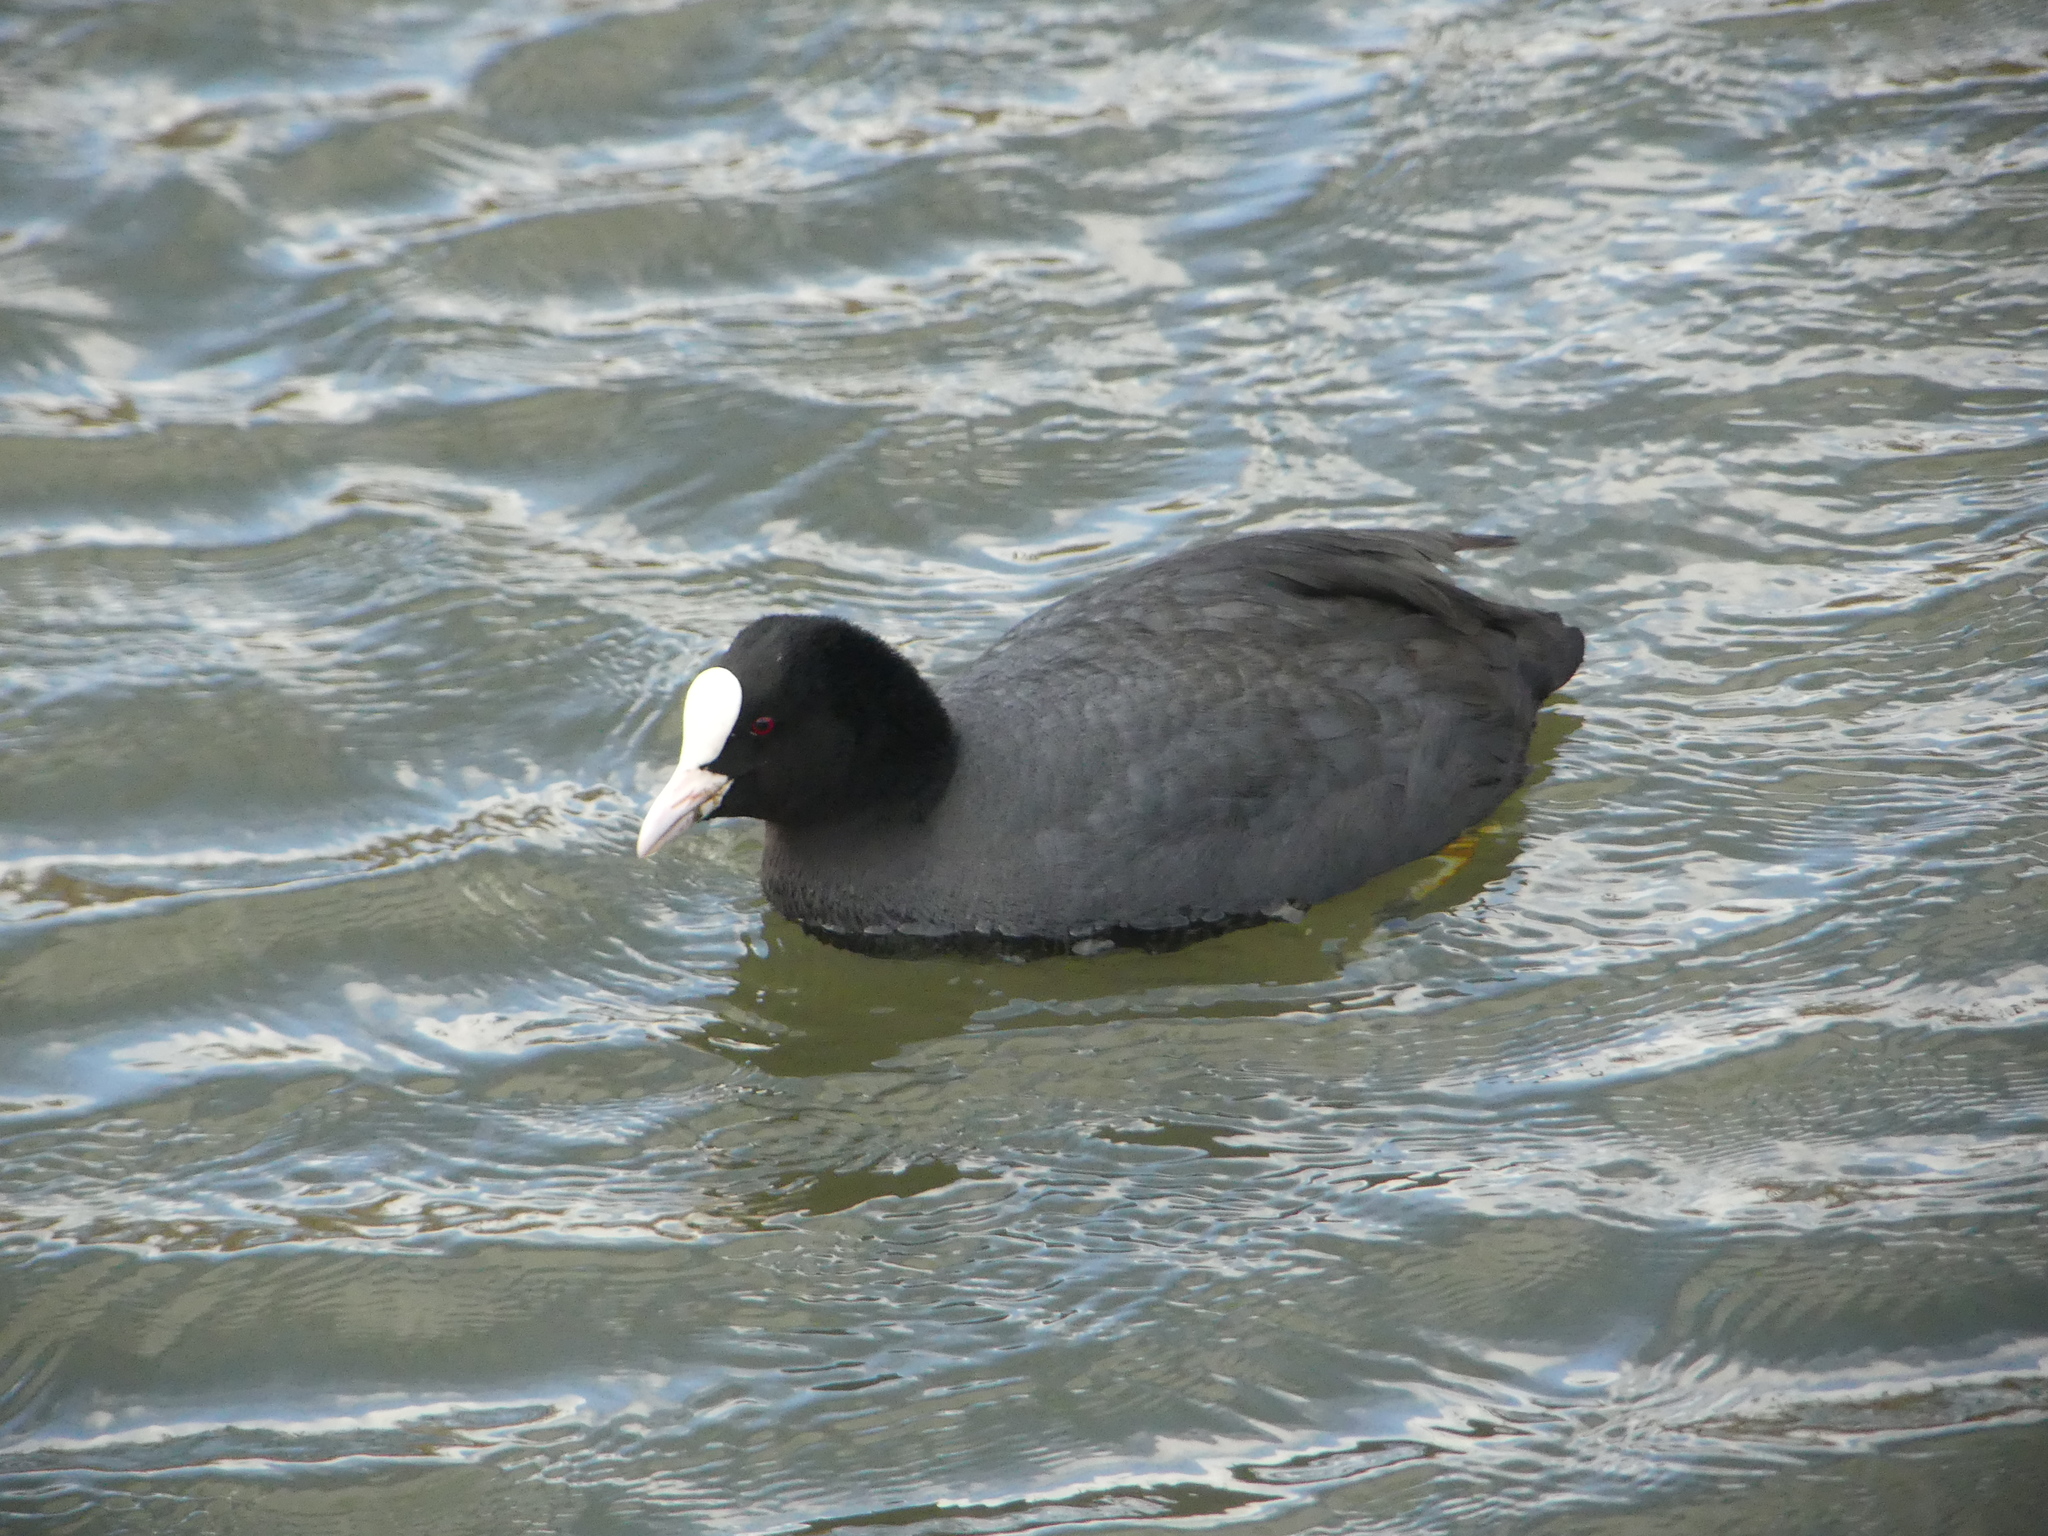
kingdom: Animalia
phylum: Chordata
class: Aves
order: Gruiformes
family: Rallidae
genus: Fulica
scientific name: Fulica atra
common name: Eurasian coot
